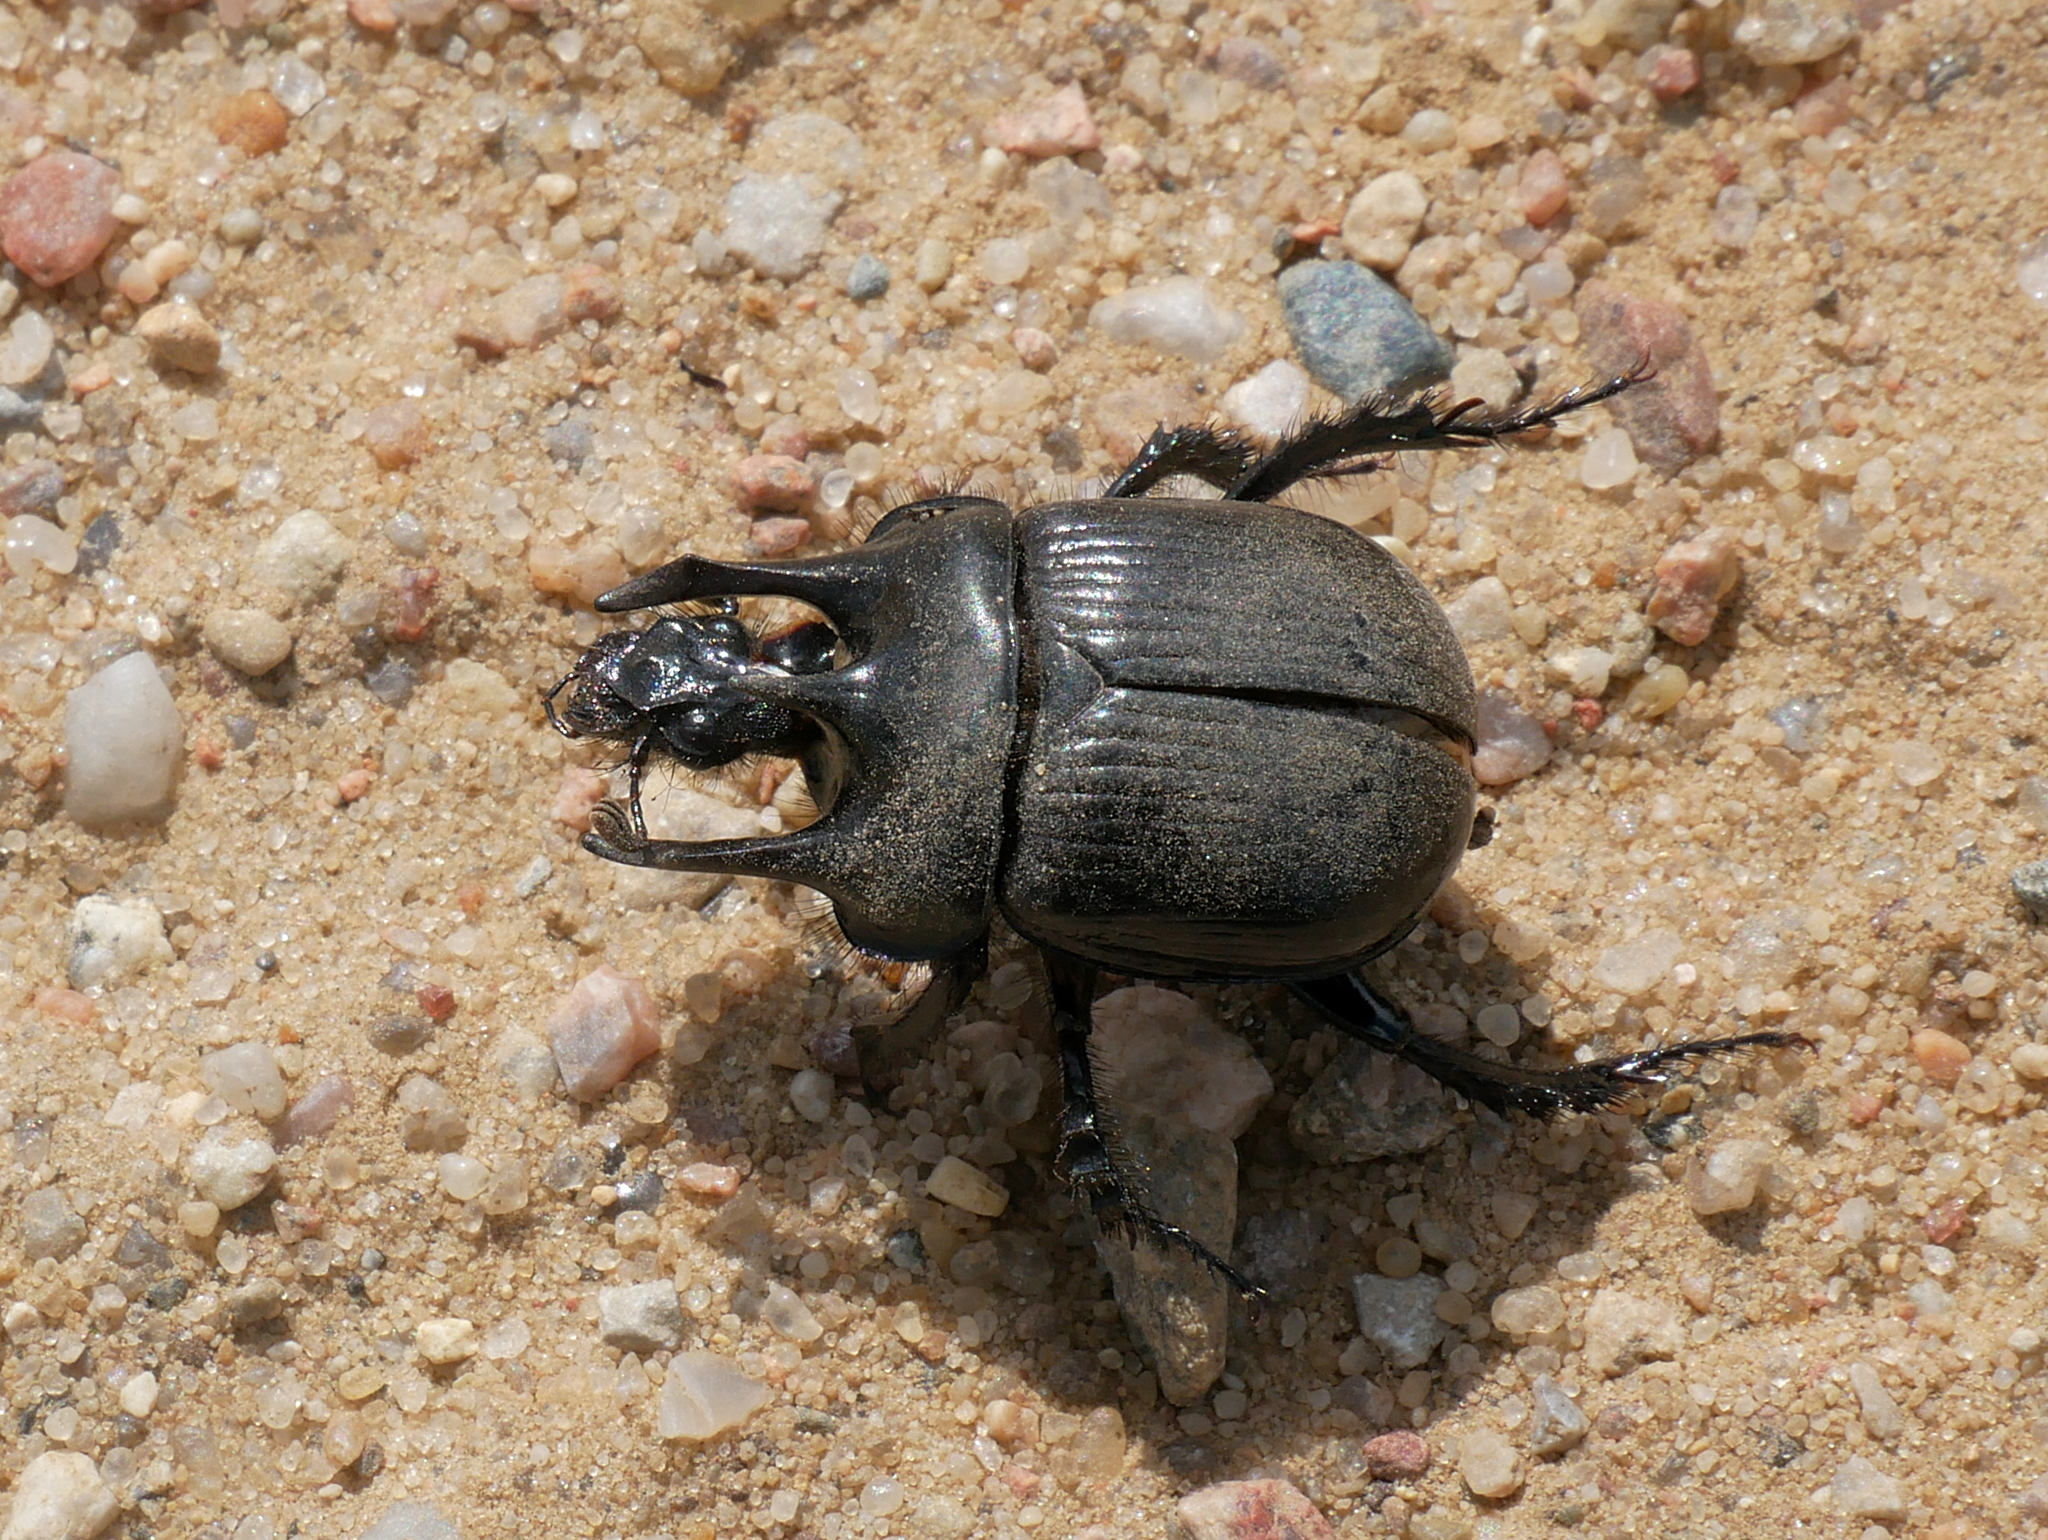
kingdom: Animalia
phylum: Arthropoda
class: Insecta
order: Coleoptera
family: Geotrupidae
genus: Typhaeus
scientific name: Typhaeus typhoeus
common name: Minotaur beetle
